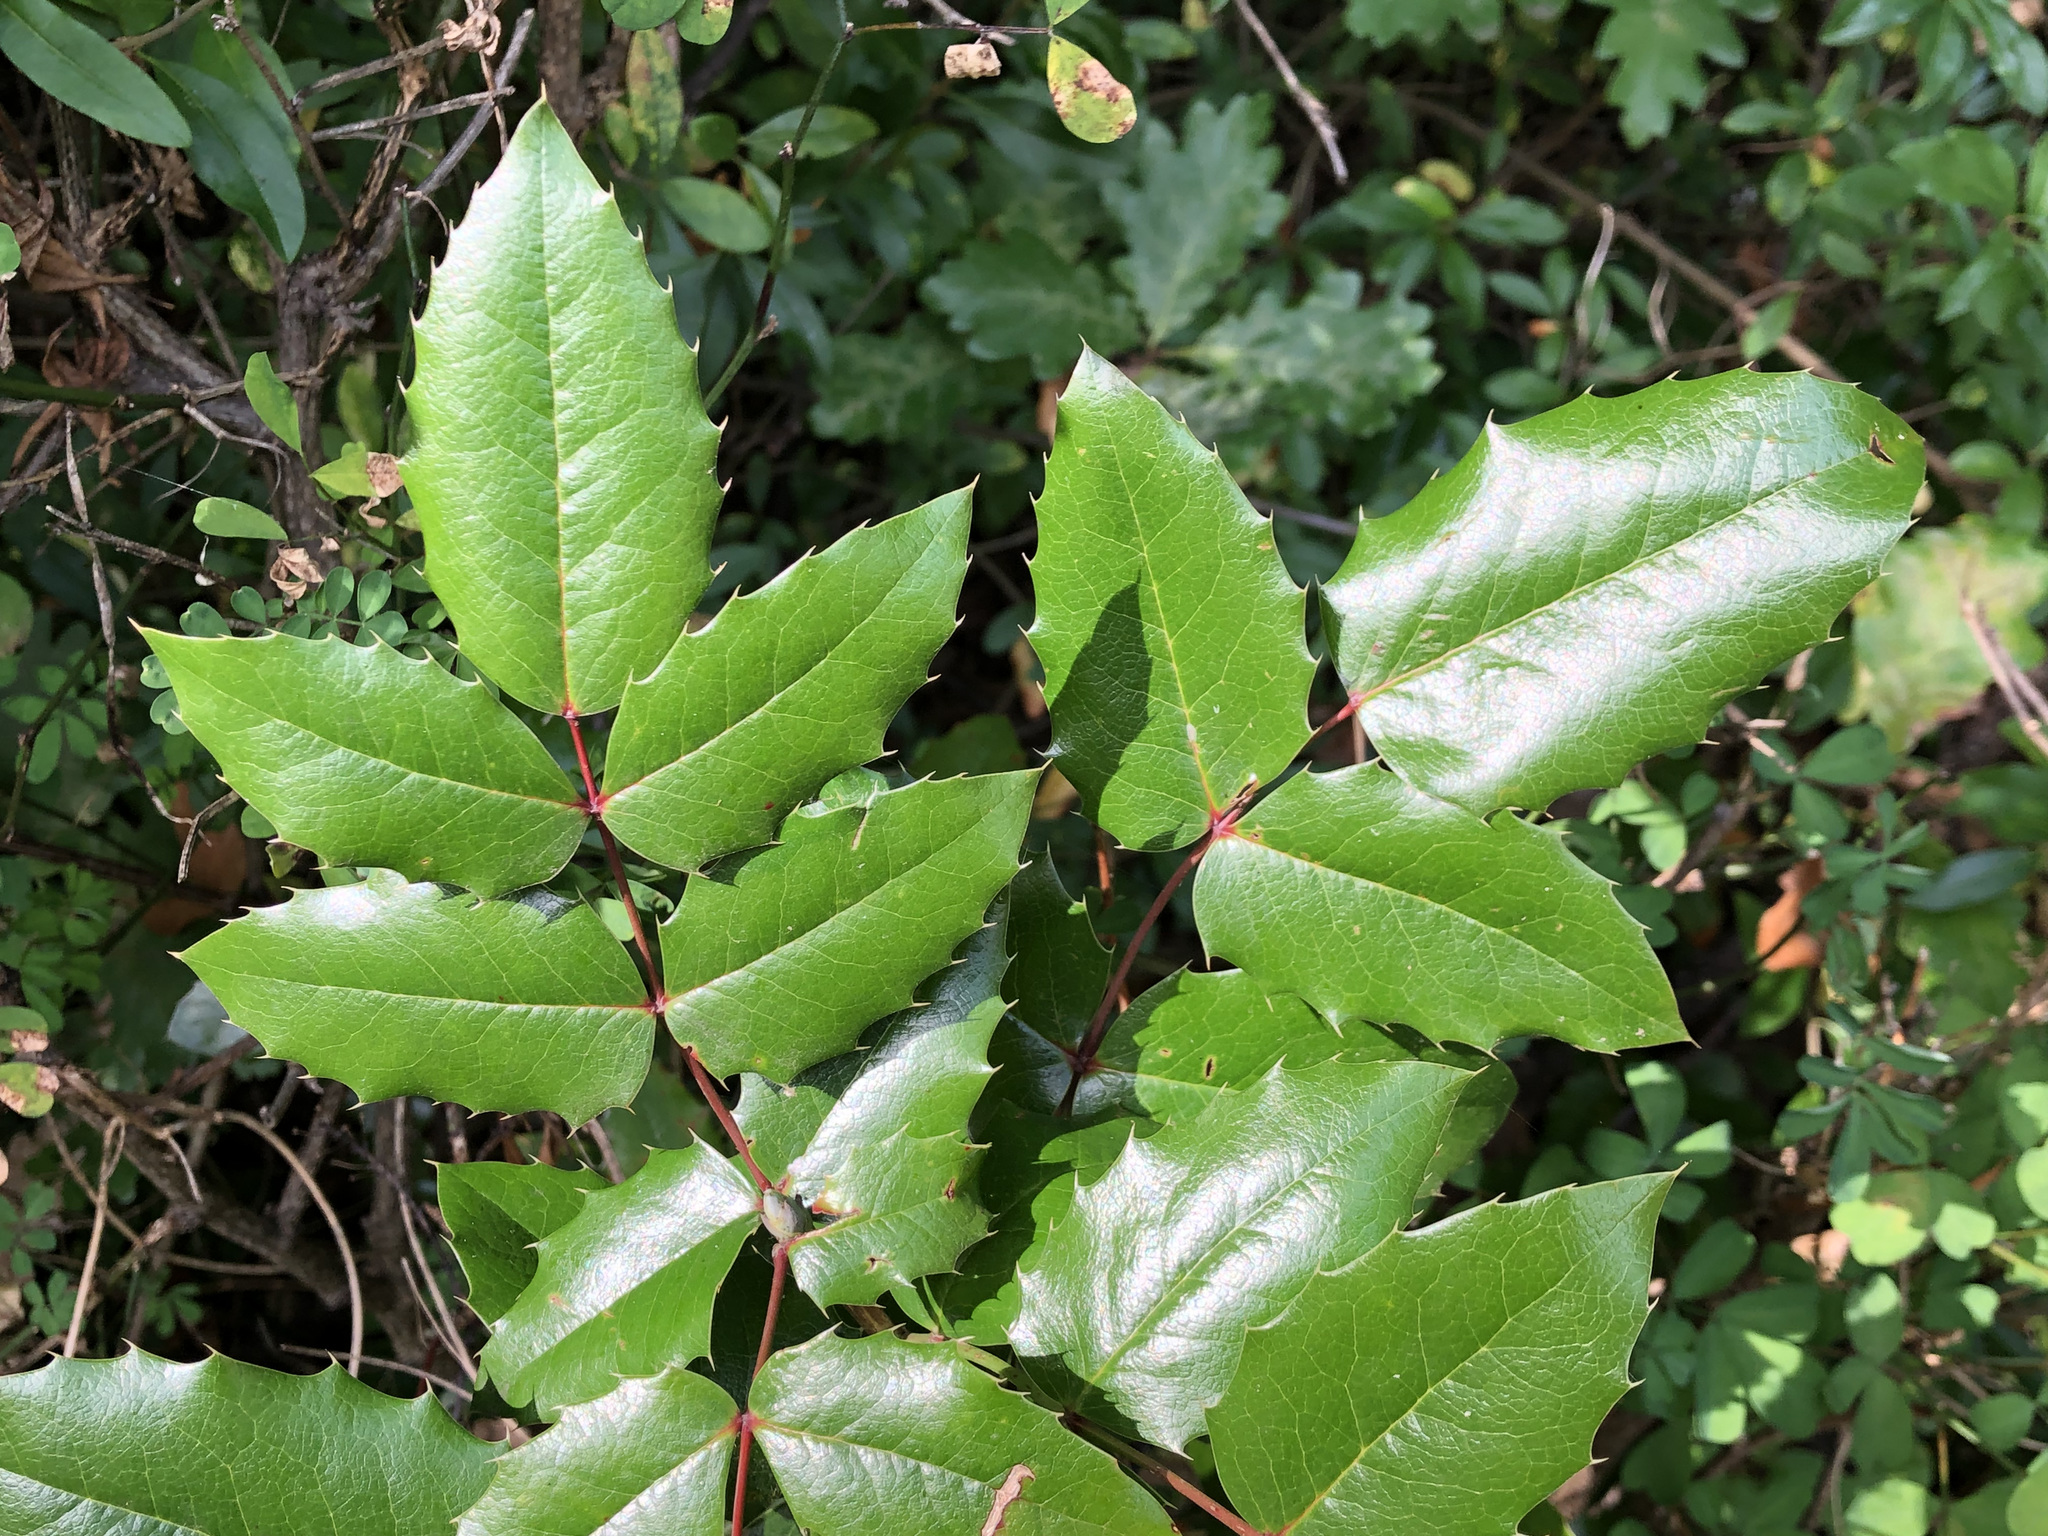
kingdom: Plantae
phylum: Tracheophyta
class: Magnoliopsida
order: Ranunculales
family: Berberidaceae
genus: Mahonia
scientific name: Mahonia aquifolium
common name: Oregon-grape
